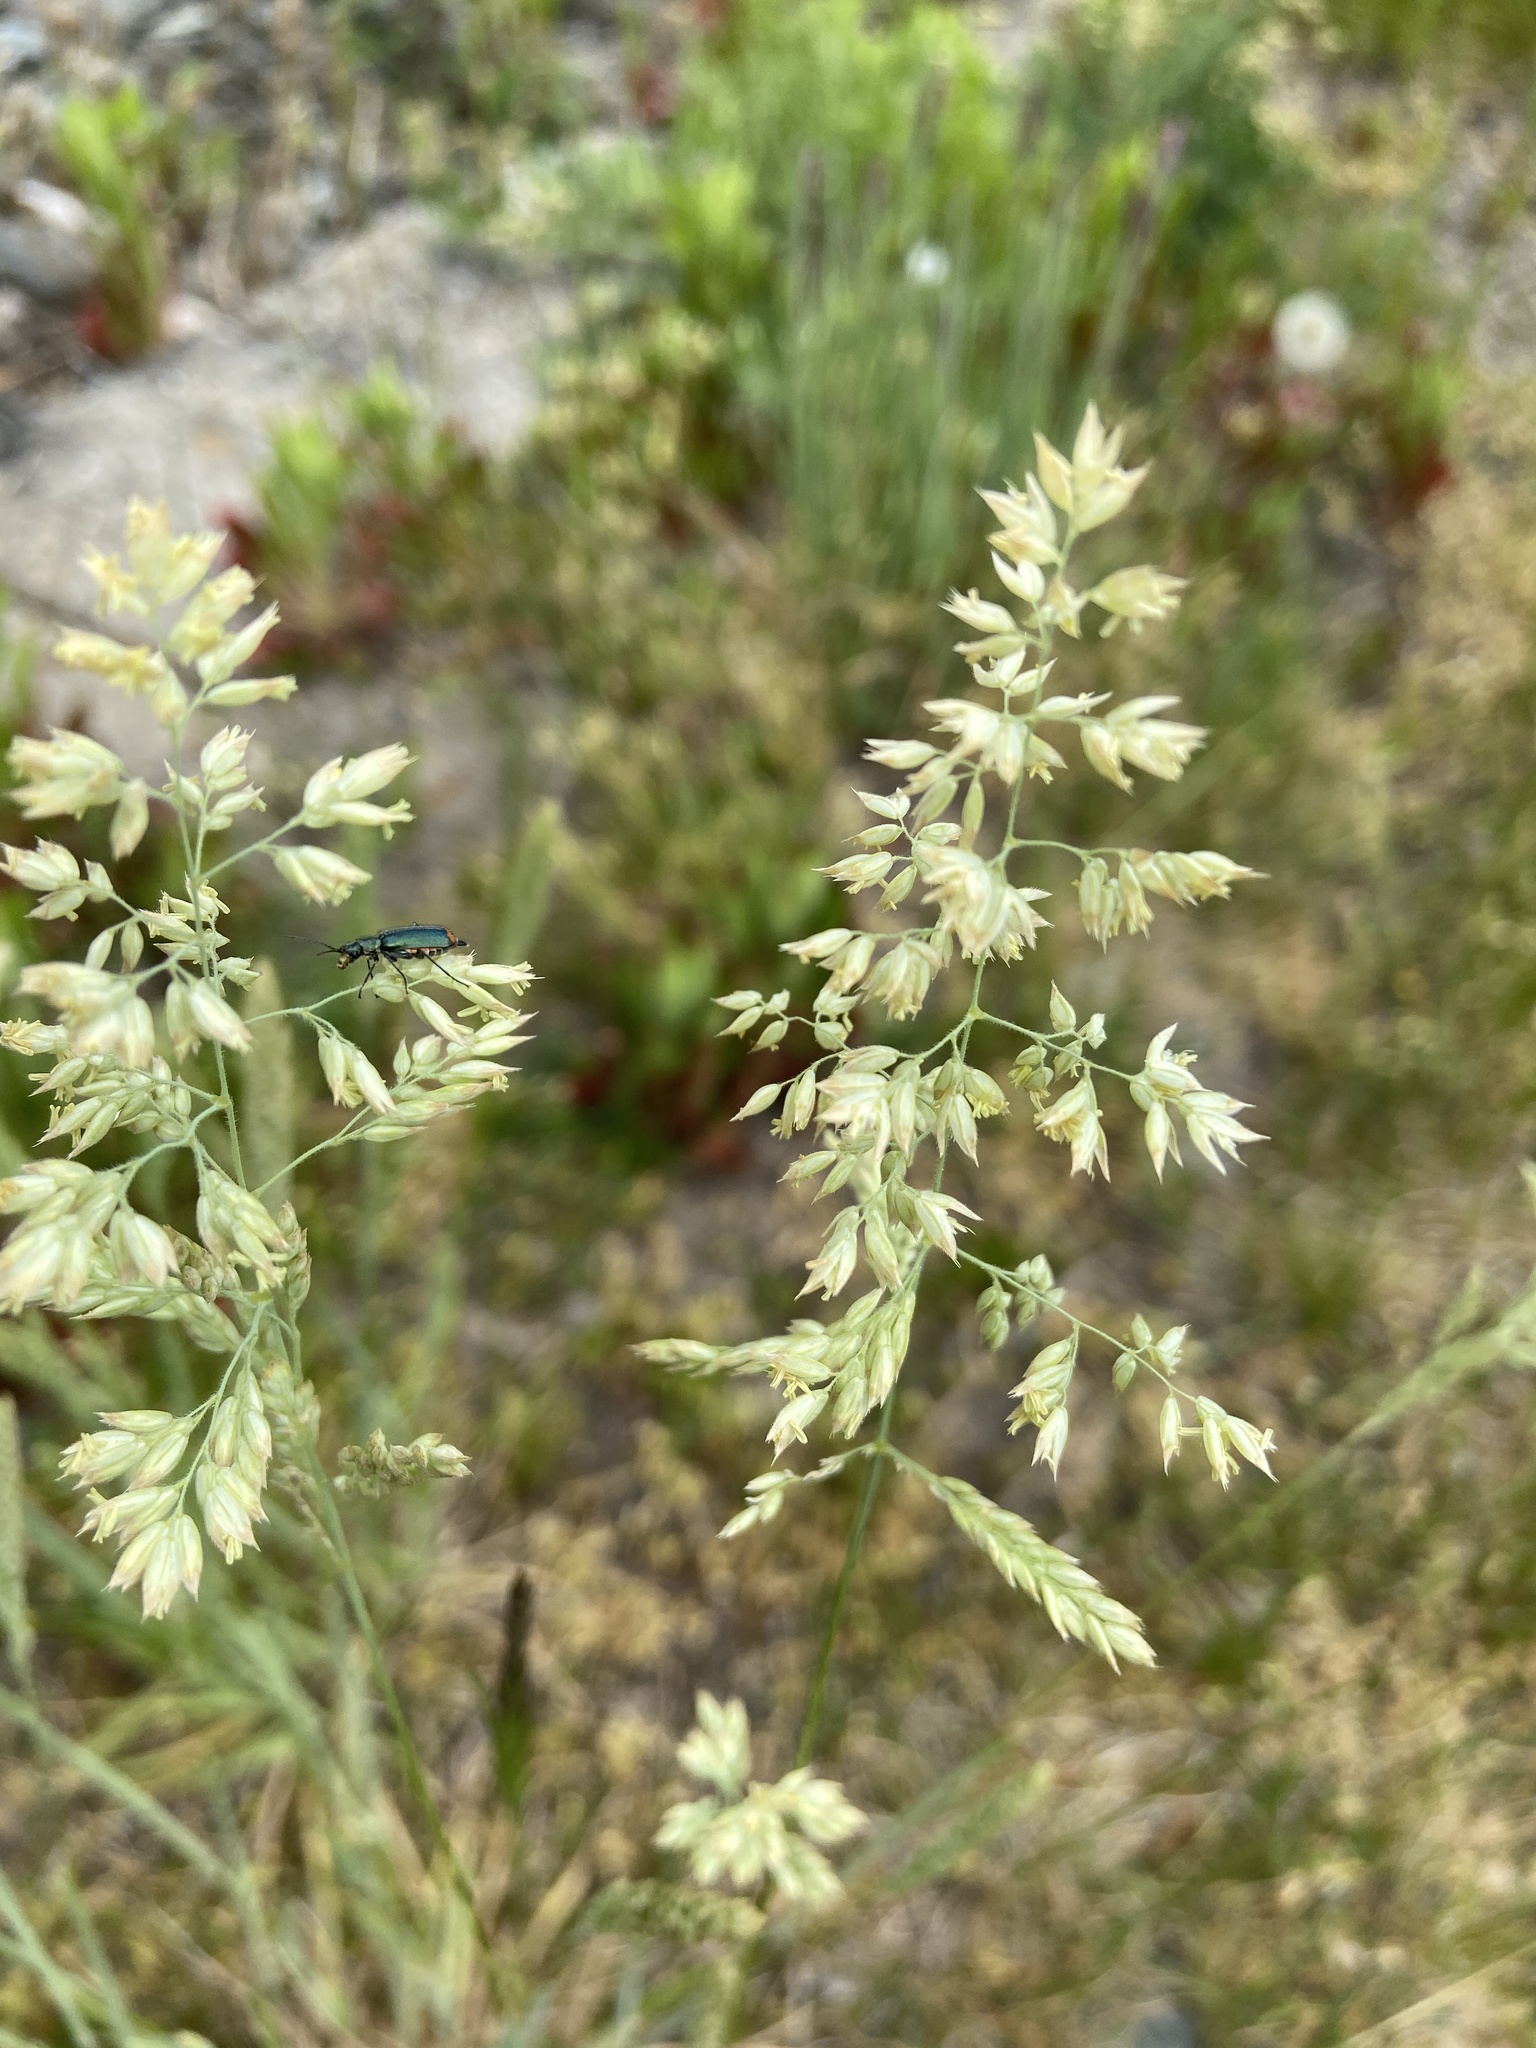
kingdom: Plantae
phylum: Tracheophyta
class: Liliopsida
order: Poales
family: Poaceae
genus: Holcus
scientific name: Holcus lanatus
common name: Yorkshire-fog
